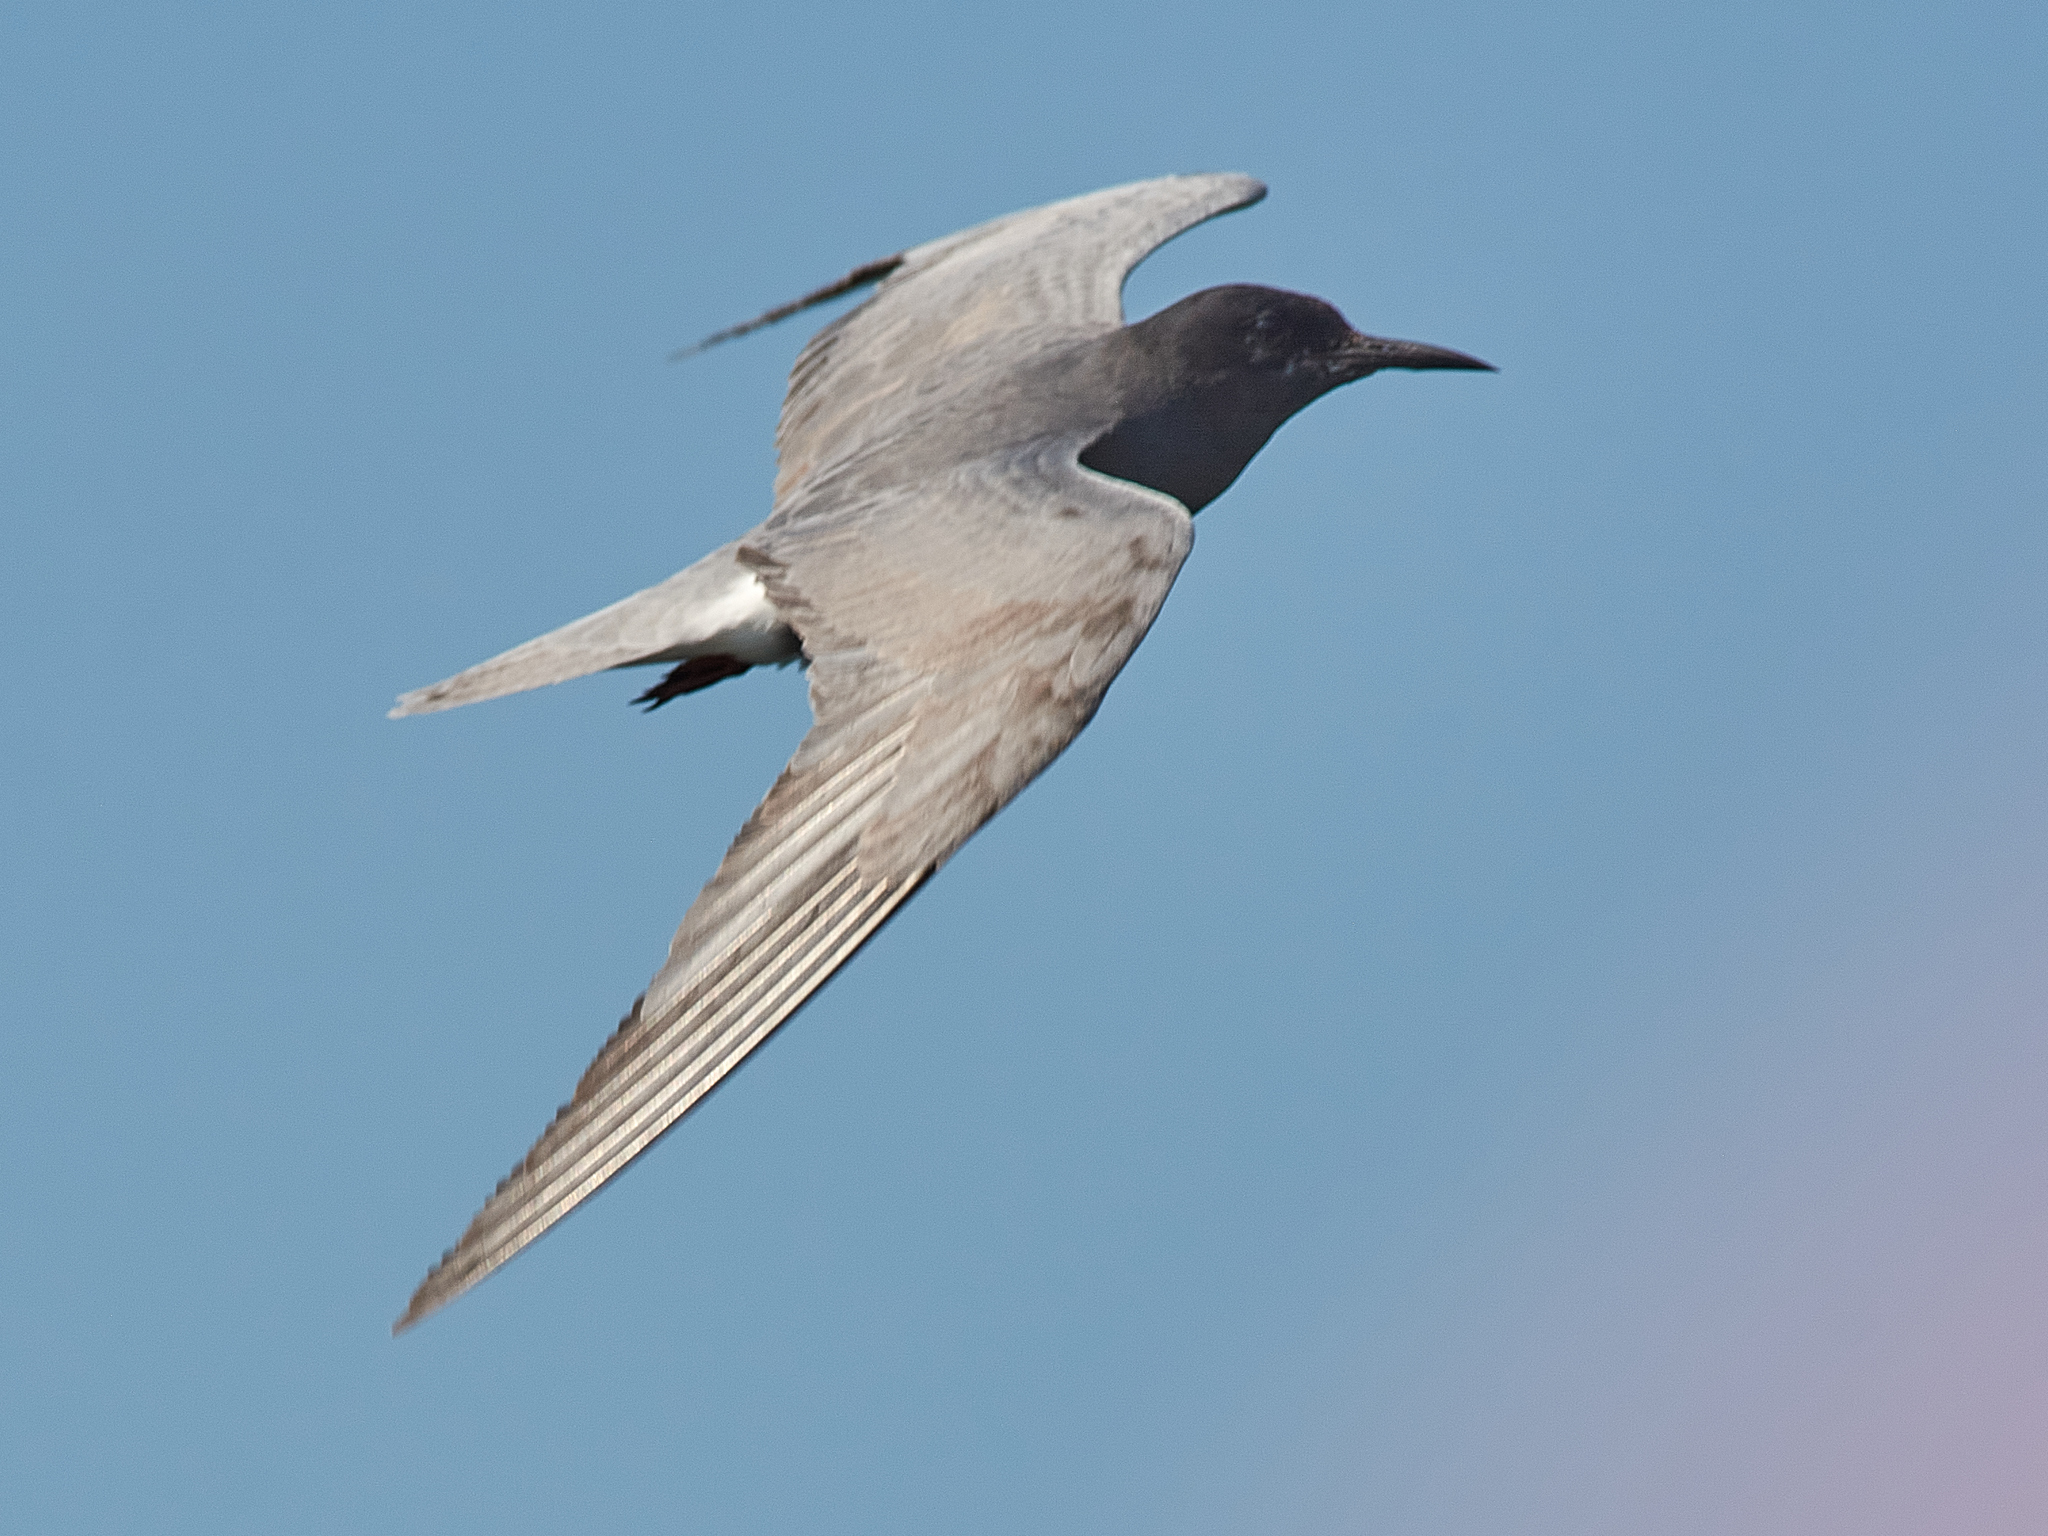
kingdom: Animalia
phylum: Chordata
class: Aves
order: Charadriiformes
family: Laridae
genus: Chlidonias
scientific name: Chlidonias niger
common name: Black tern
